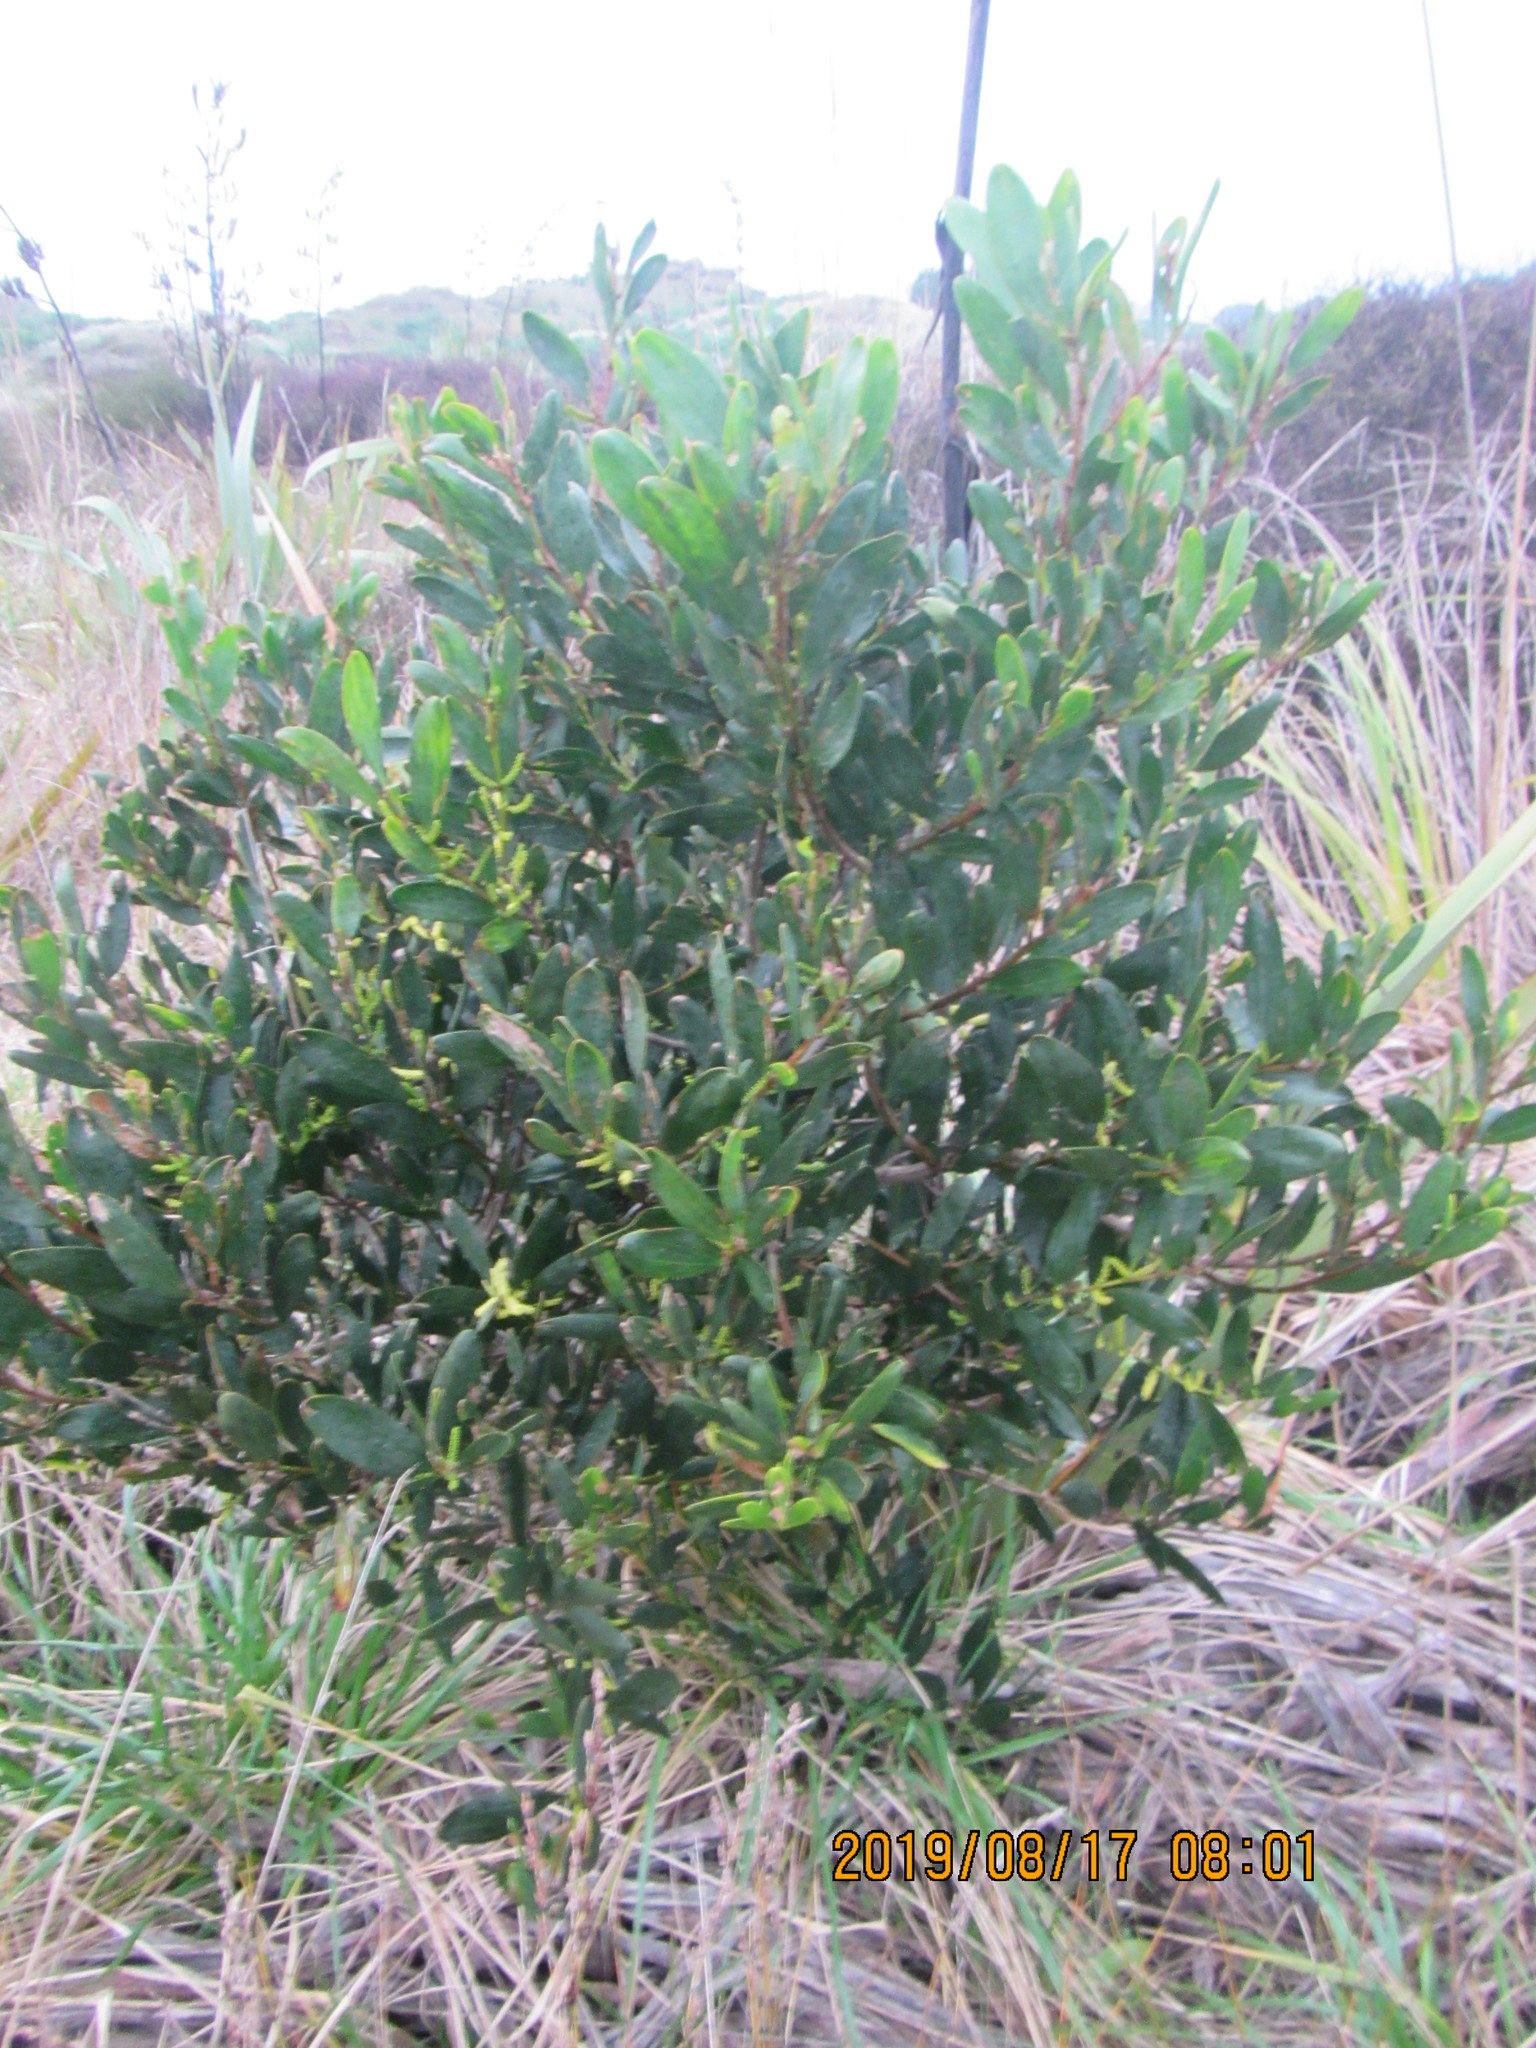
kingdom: Plantae
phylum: Tracheophyta
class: Magnoliopsida
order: Fabales
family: Fabaceae
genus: Acacia
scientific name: Acacia longifolia
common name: Sydney golden wattle
